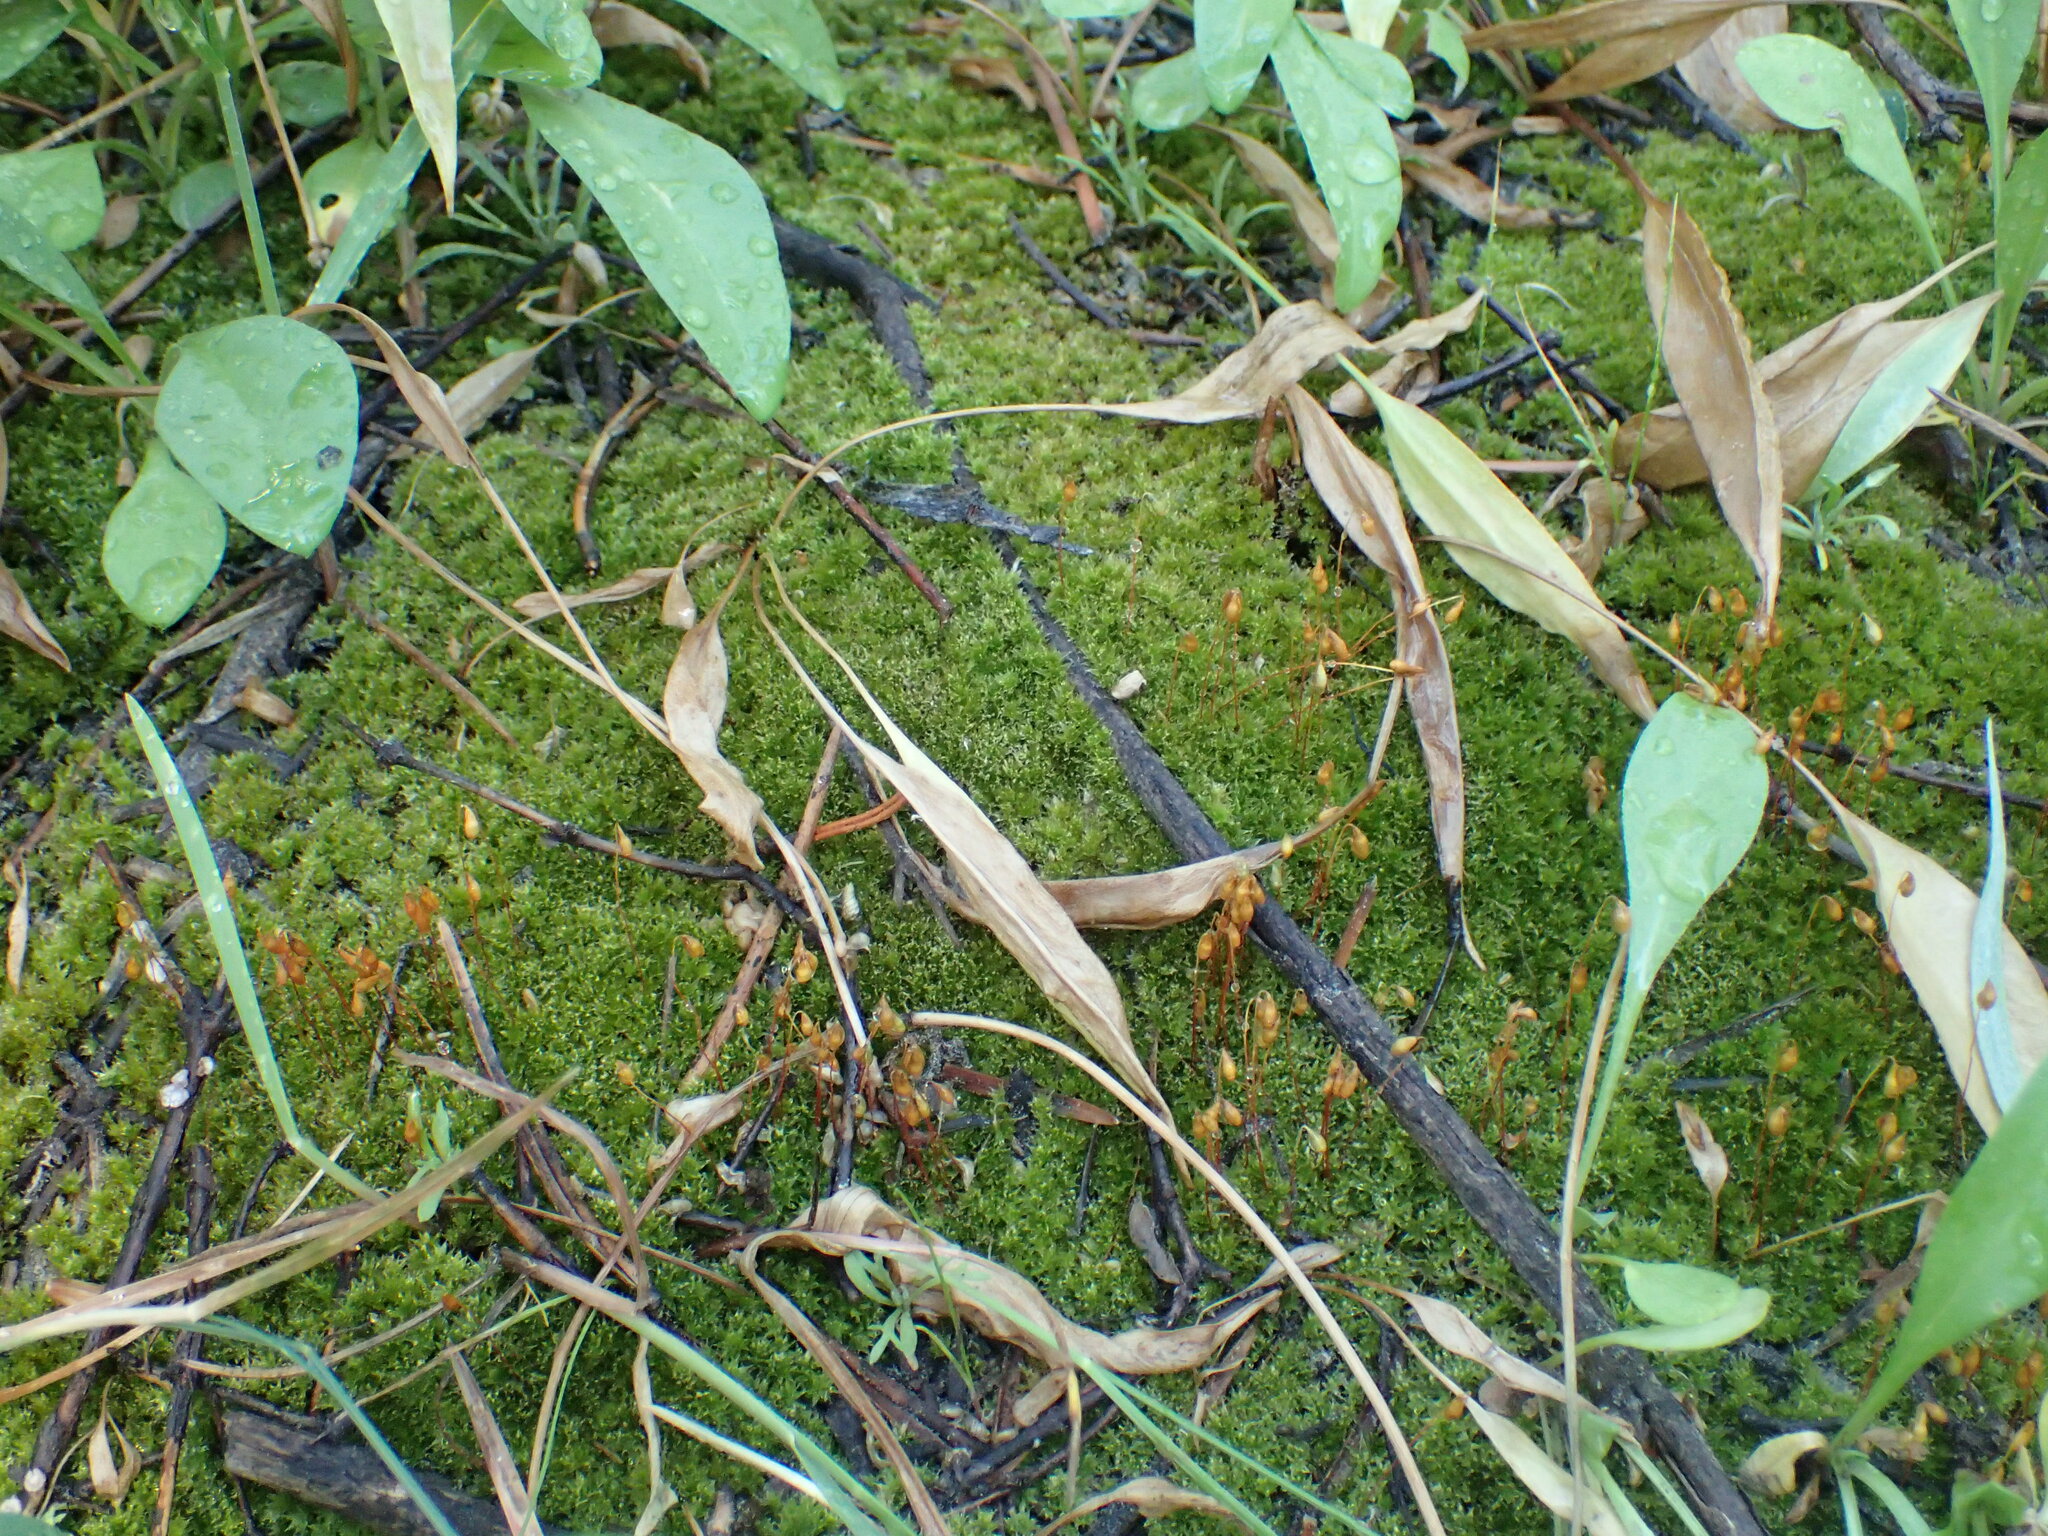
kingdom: Plantae
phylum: Bryophyta
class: Bryopsida
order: Funariales
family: Funariaceae
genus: Funaria
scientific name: Funaria hygrometrica
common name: Common cord moss
